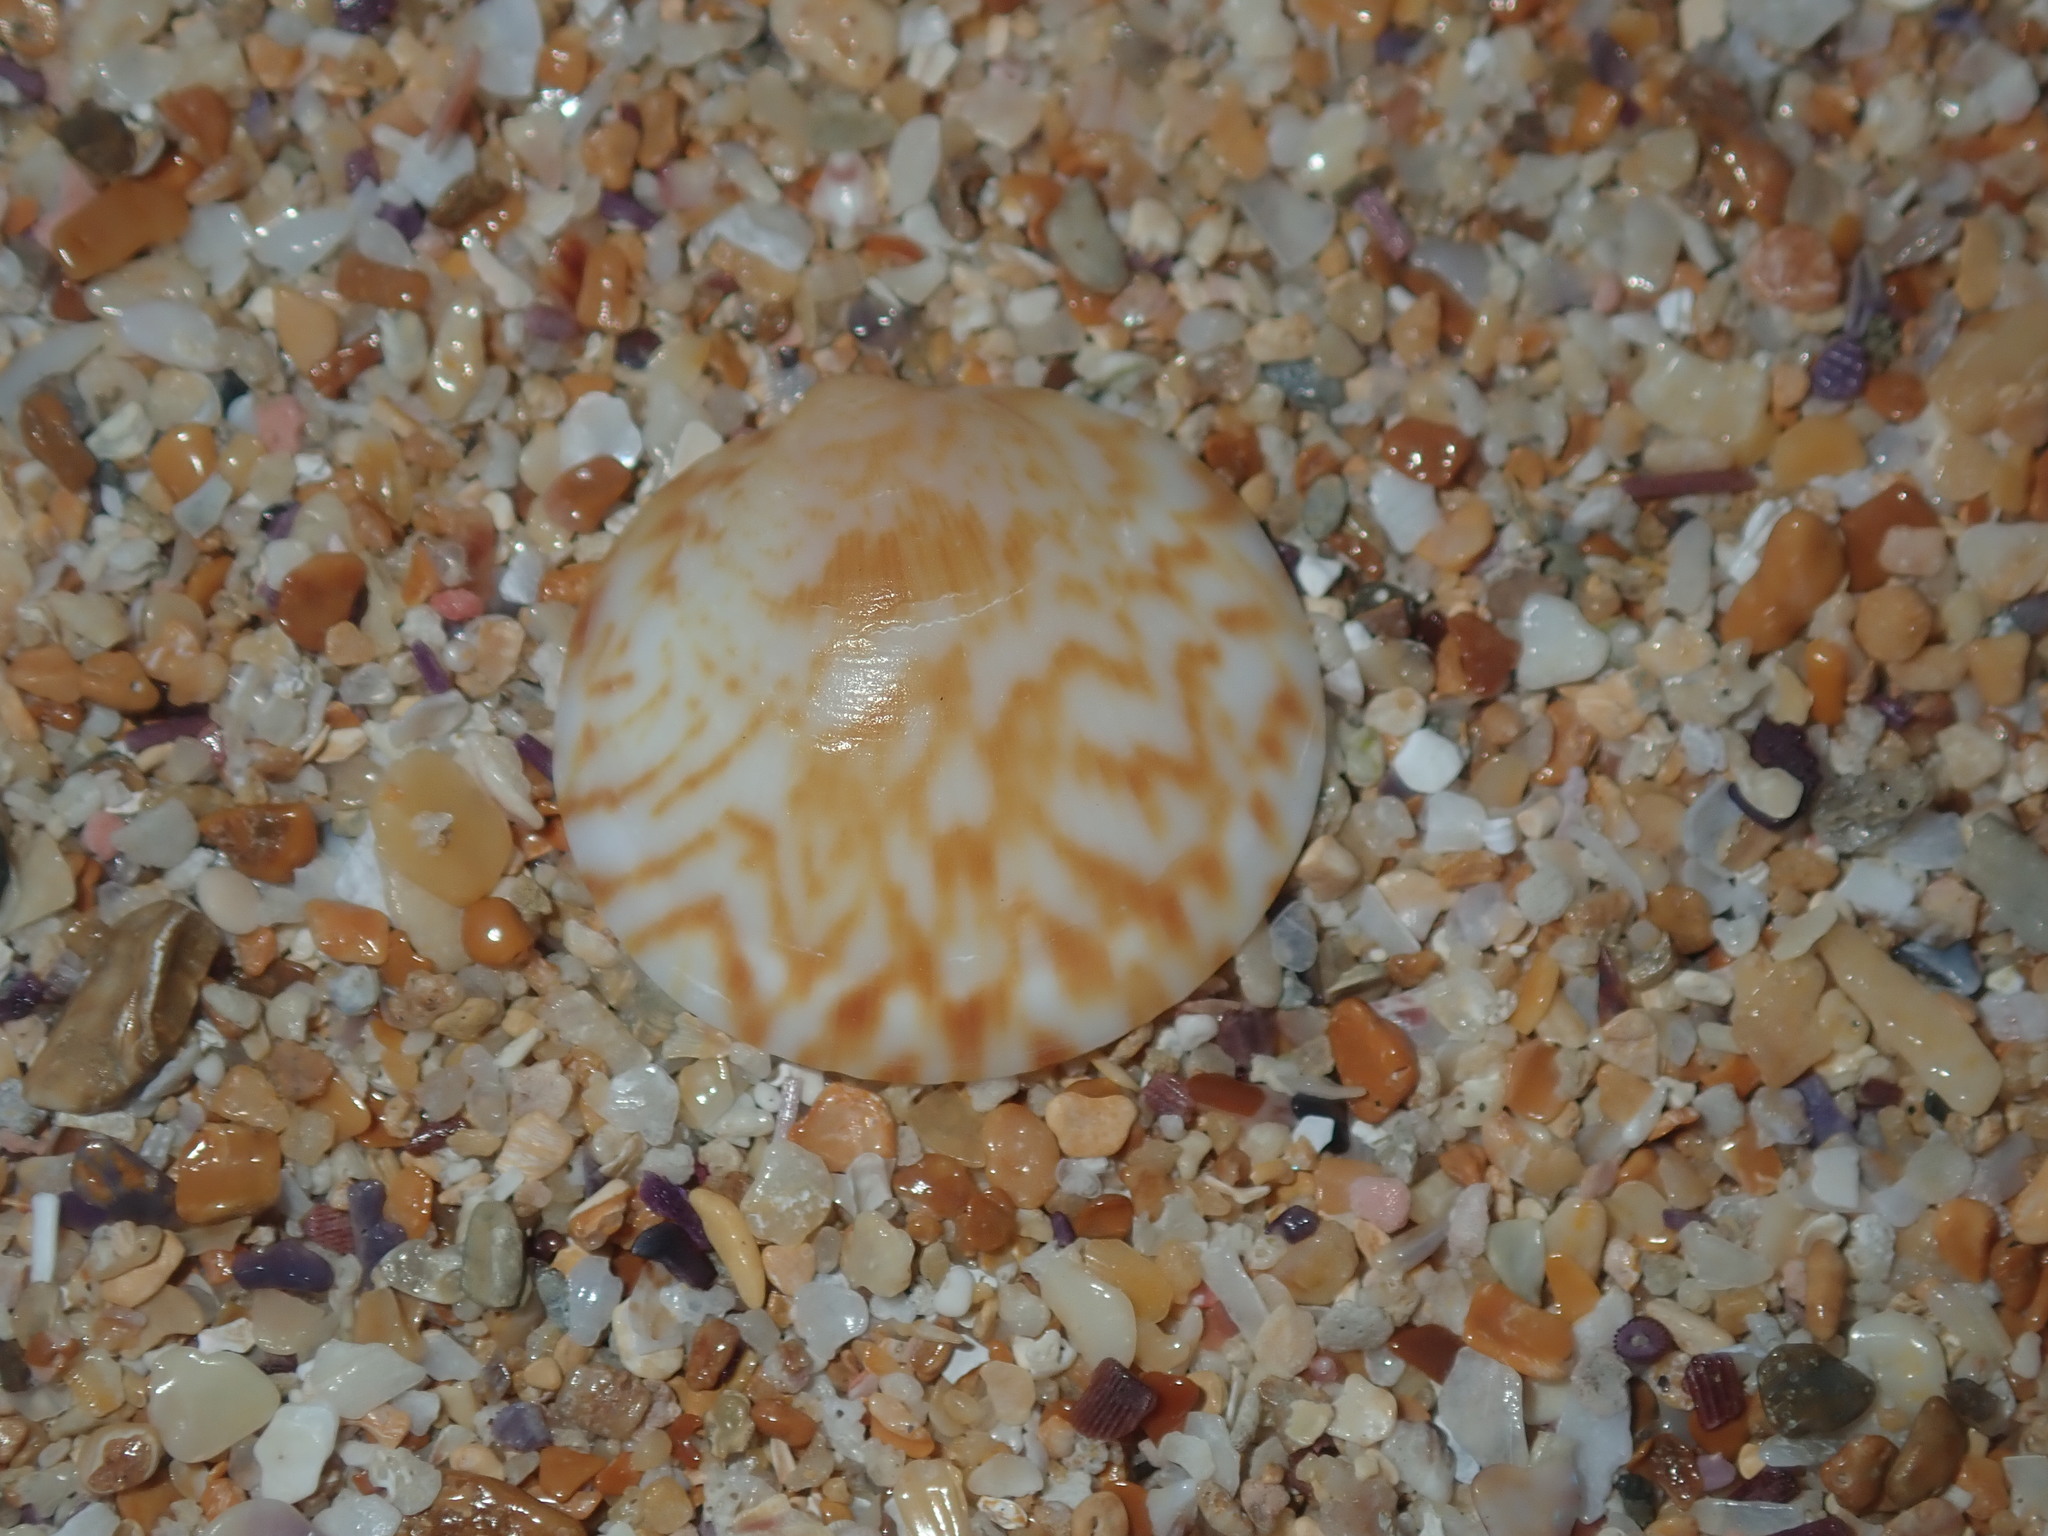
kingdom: Animalia
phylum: Mollusca
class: Bivalvia
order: Arcida
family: Glycymerididae
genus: Glycymeris
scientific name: Glycymeris grayana
